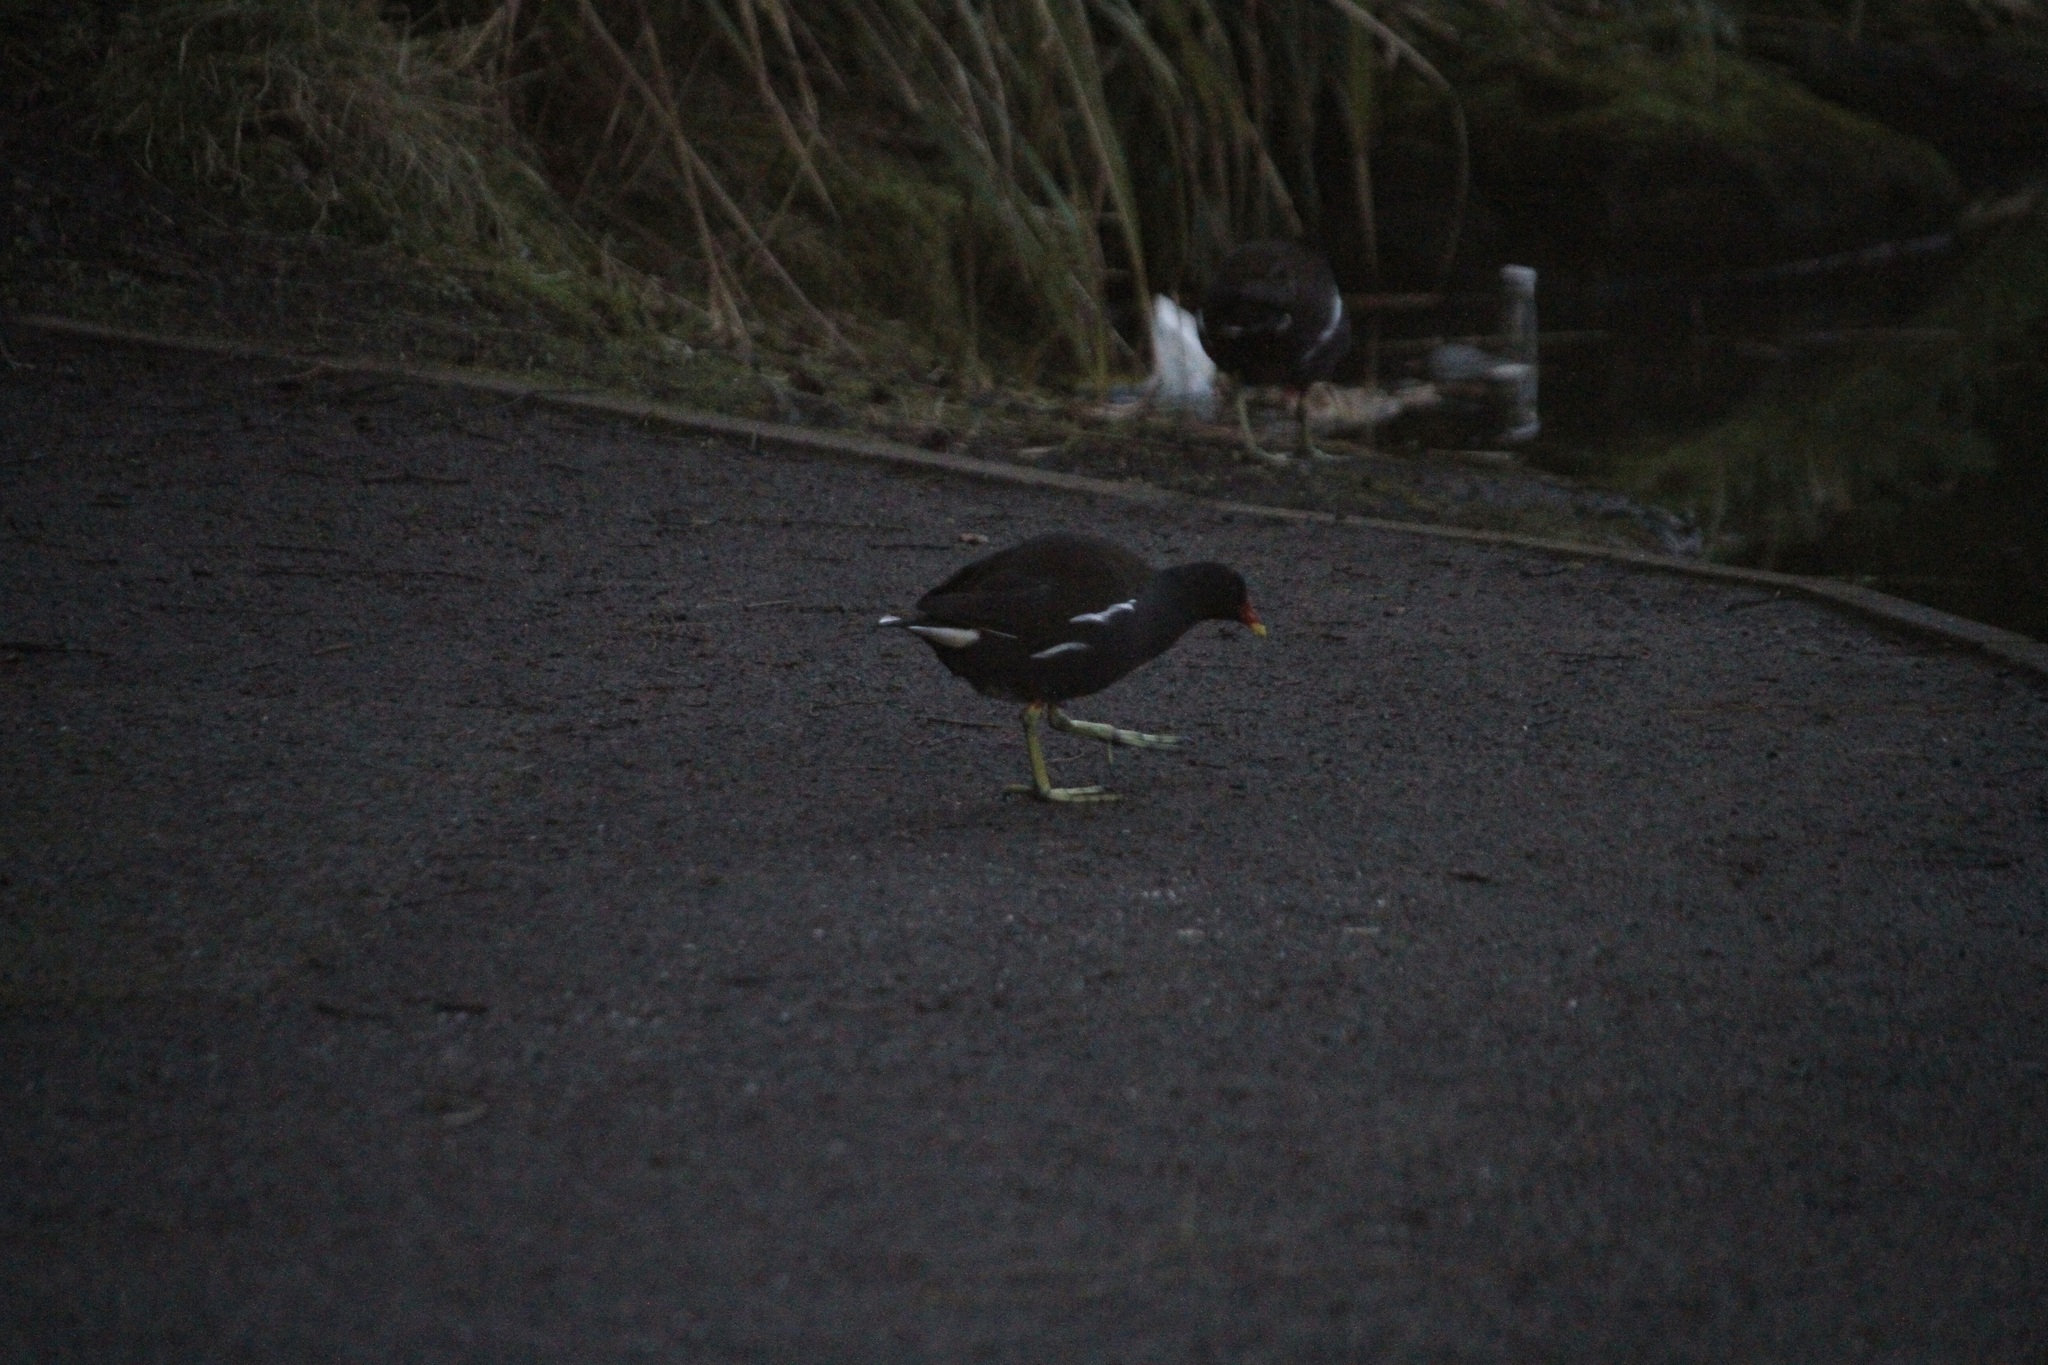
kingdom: Animalia
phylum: Chordata
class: Aves
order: Gruiformes
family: Rallidae
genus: Gallinula
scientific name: Gallinula chloropus
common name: Common moorhen
